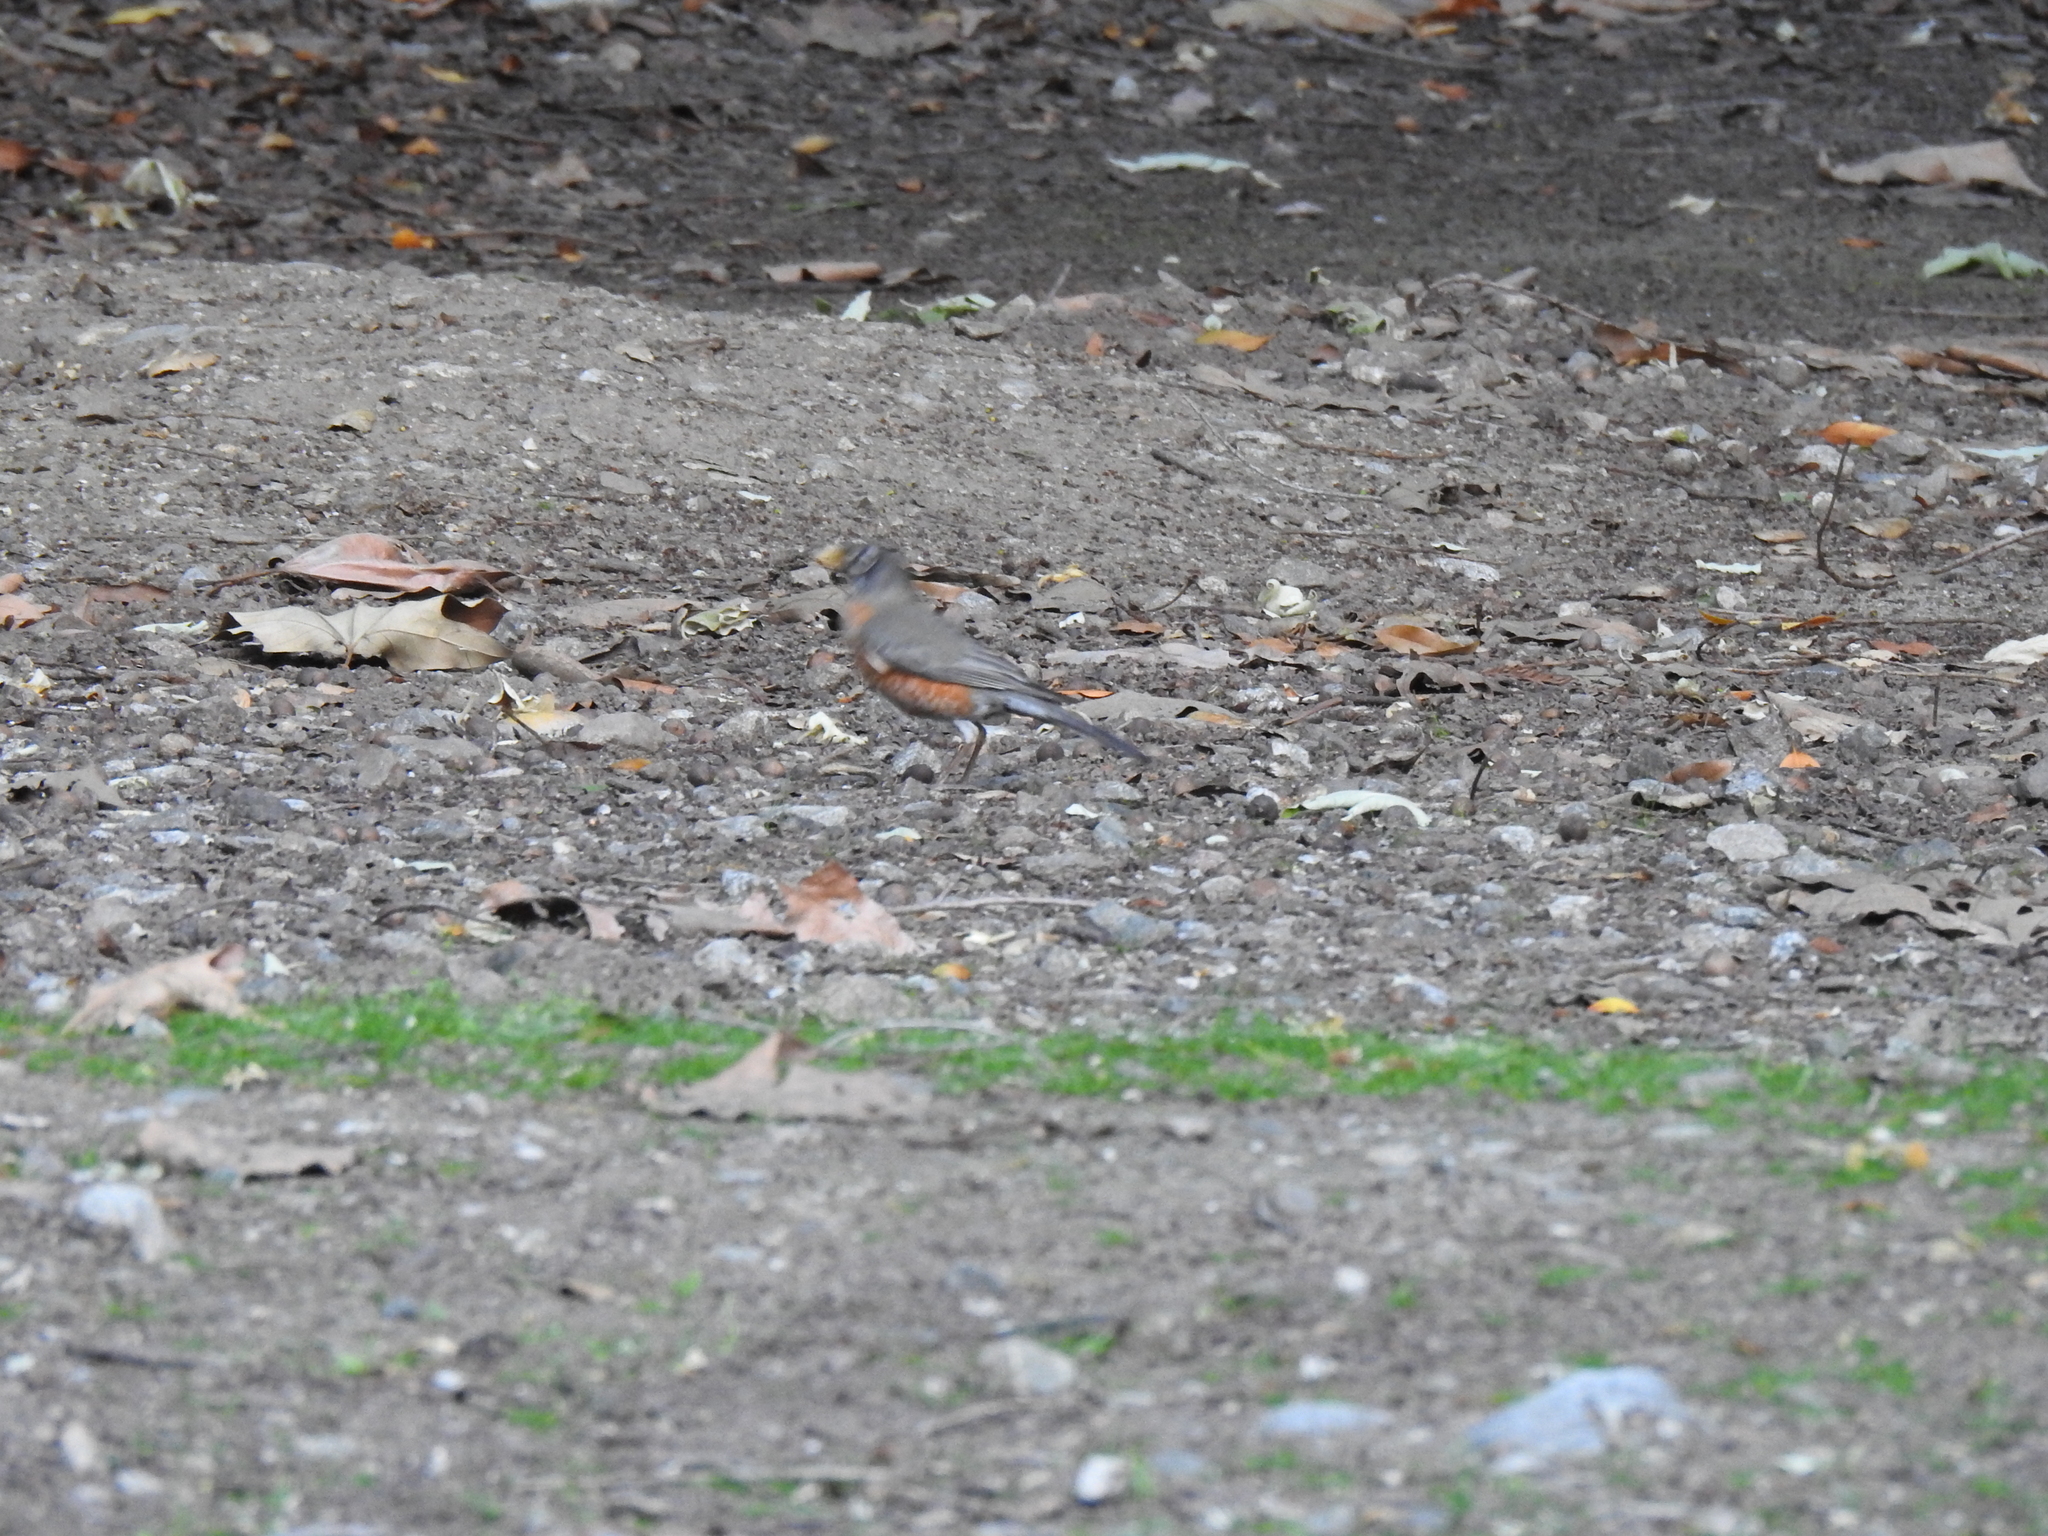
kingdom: Animalia
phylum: Chordata
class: Aves
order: Passeriformes
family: Turdidae
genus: Turdus
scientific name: Turdus migratorius
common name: American robin
